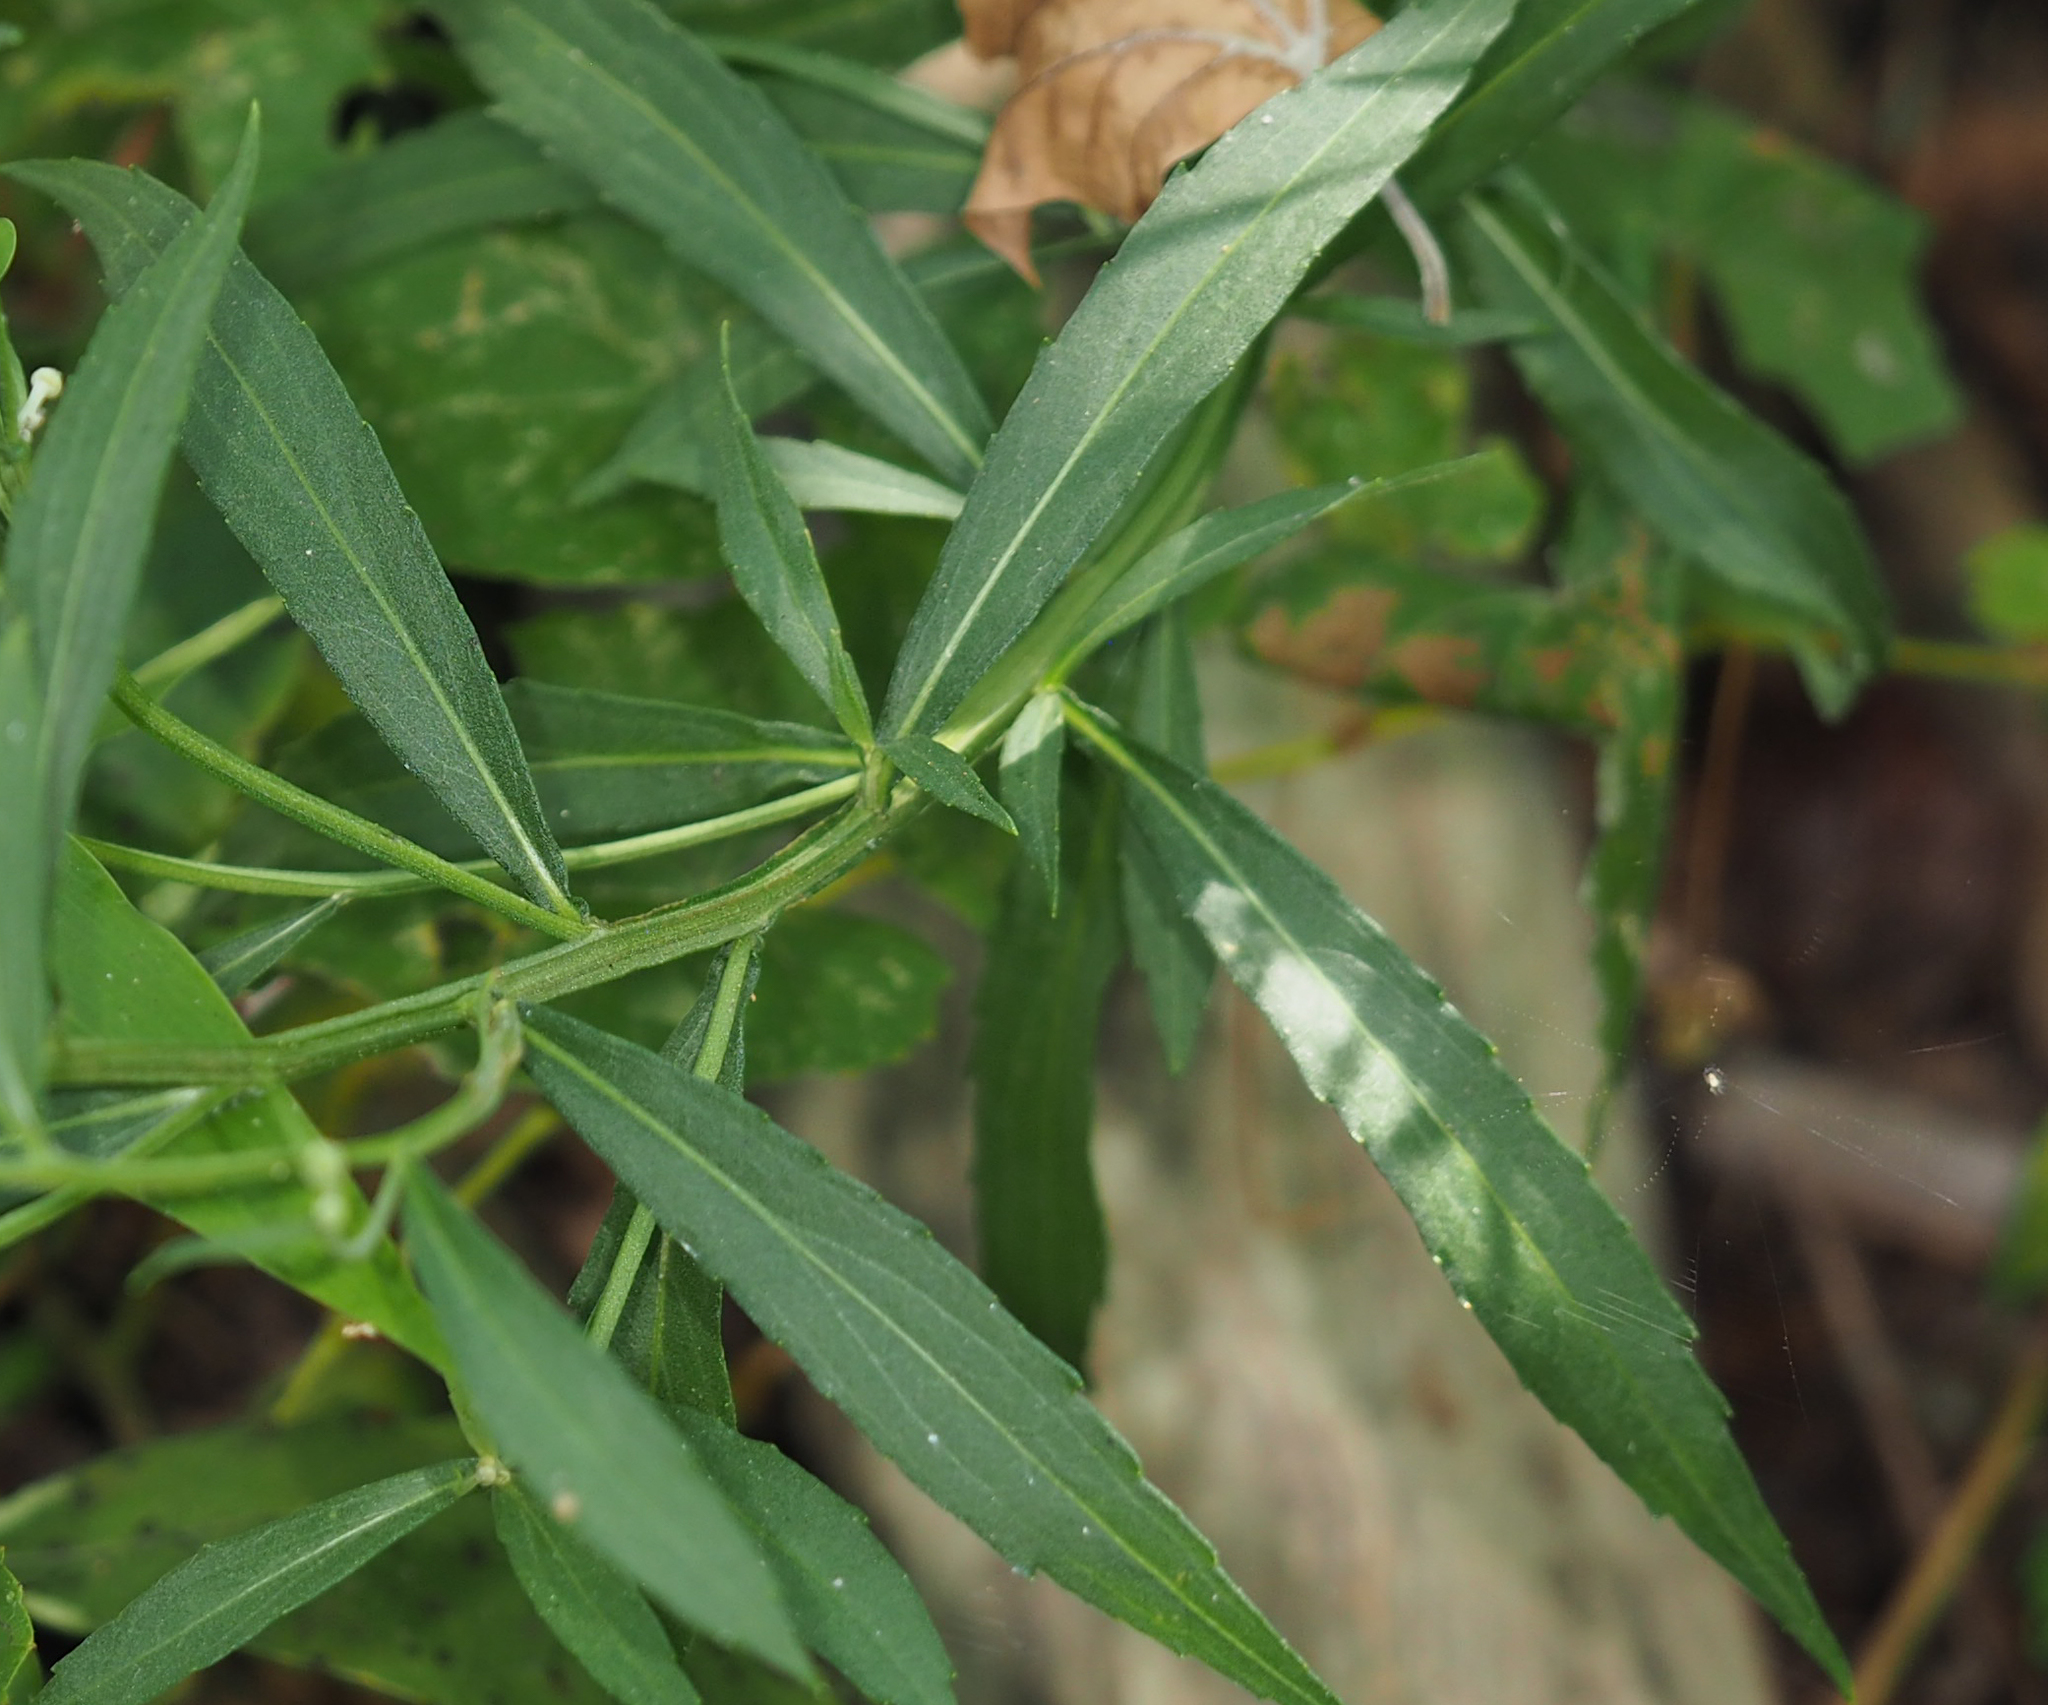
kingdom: Plantae
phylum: Tracheophyta
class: Magnoliopsida
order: Asterales
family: Asteraceae
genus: Helenium
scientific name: Helenium autumnale
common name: Sneezeweed
